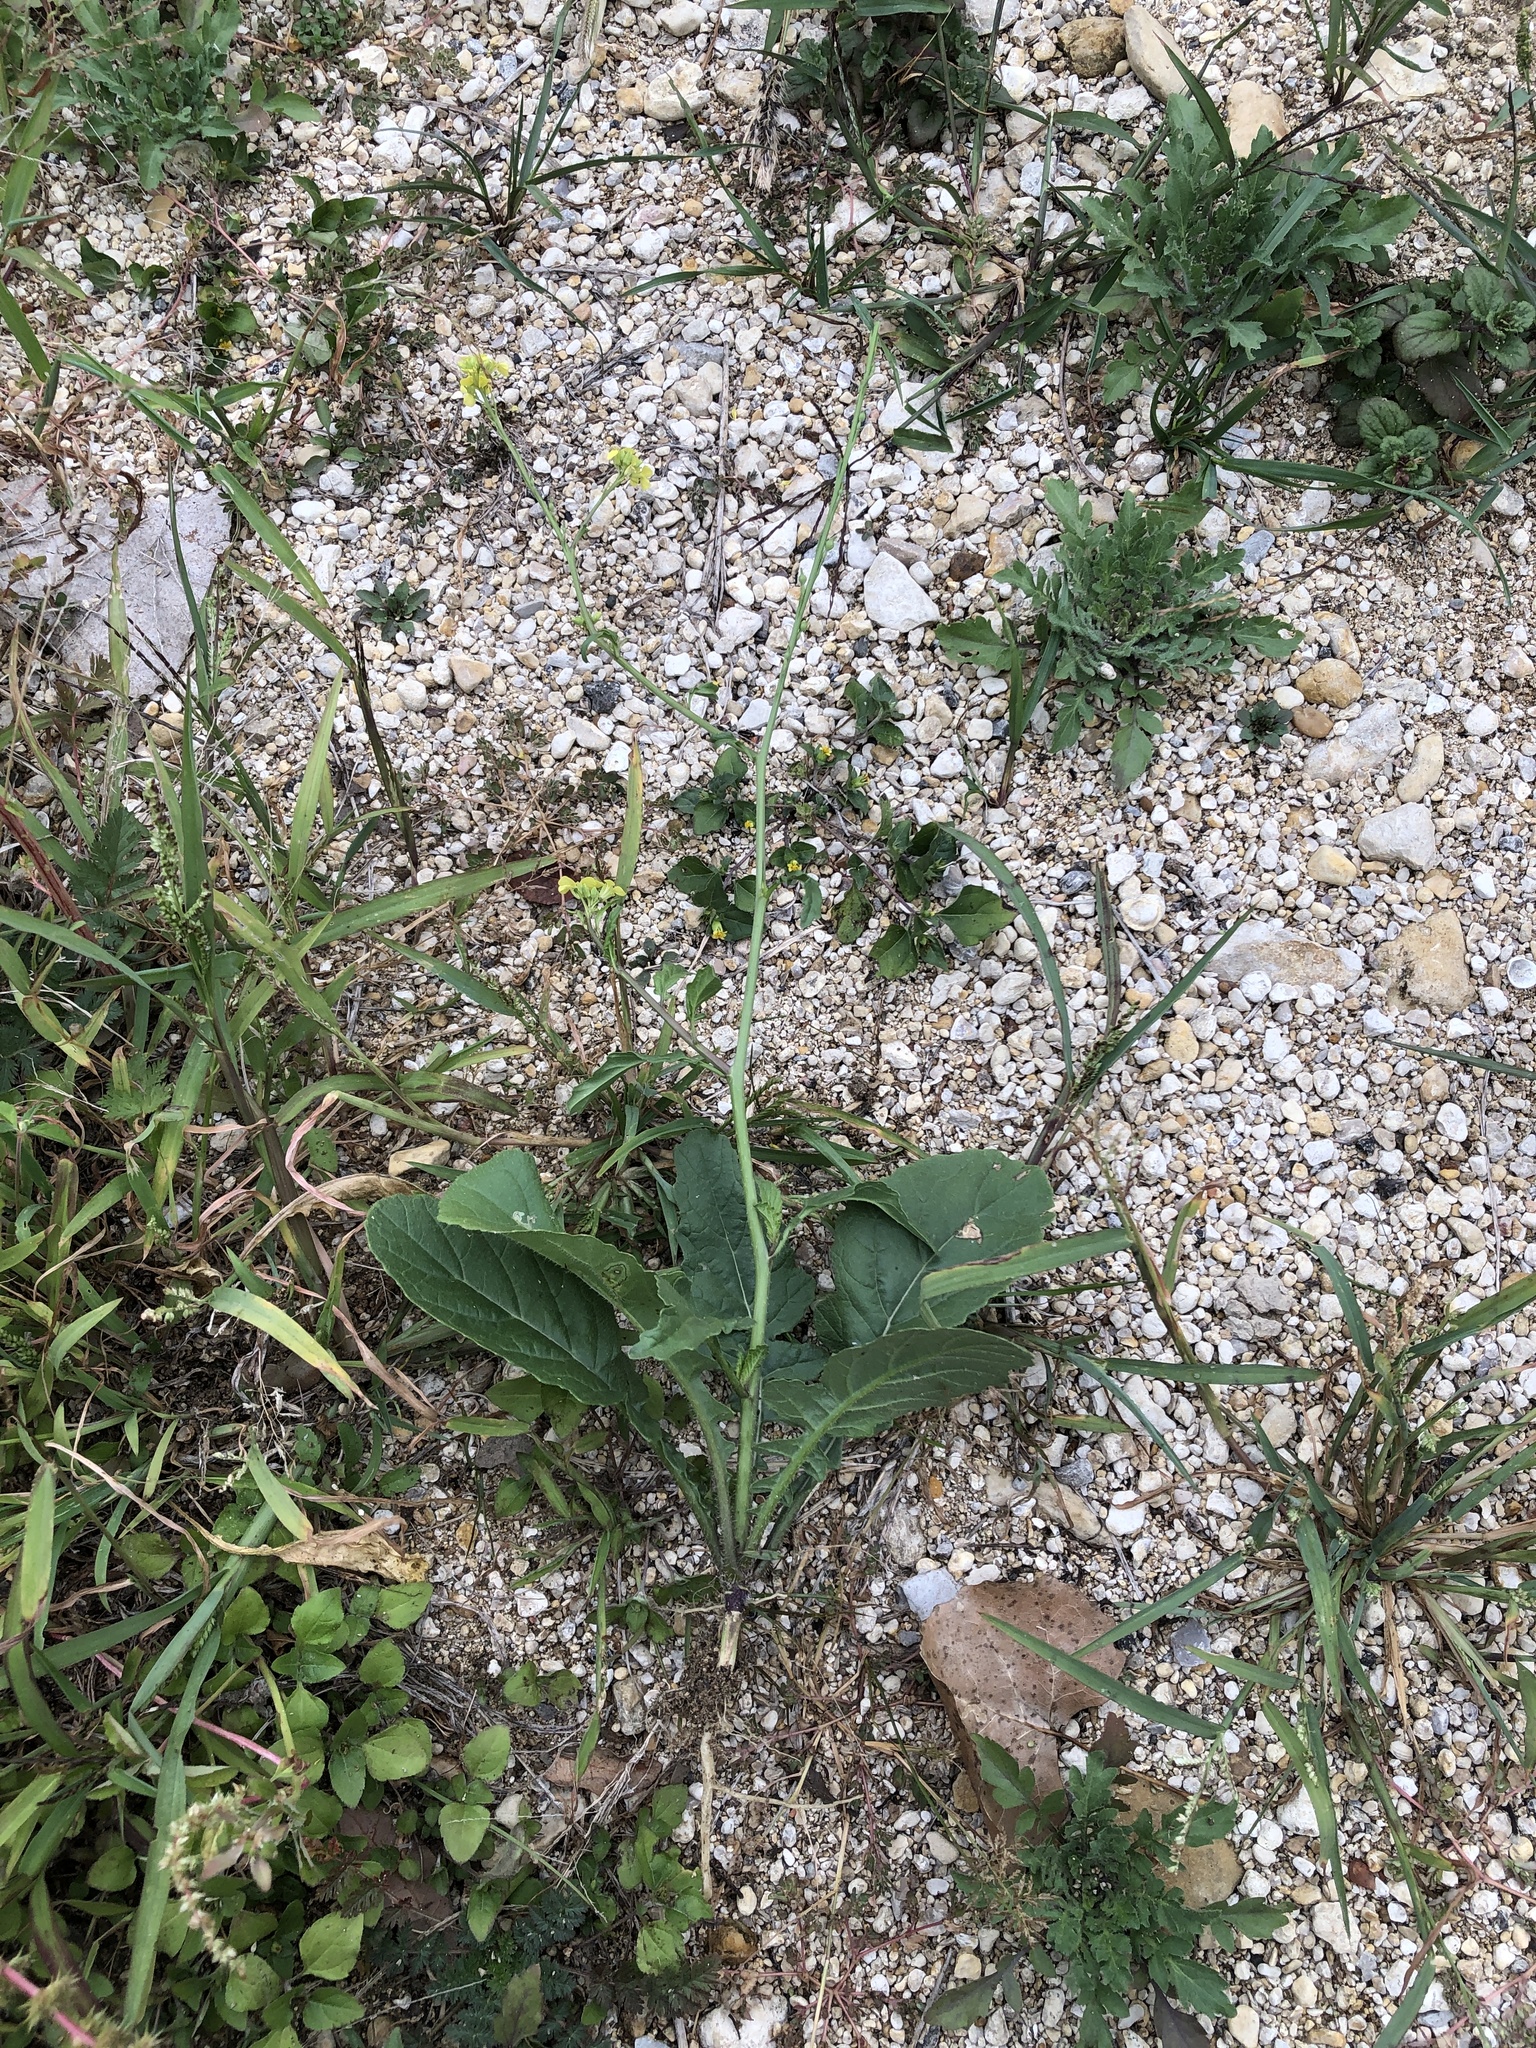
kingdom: Plantae
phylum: Tracheophyta
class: Magnoliopsida
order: Brassicales
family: Brassicaceae
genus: Rapistrum
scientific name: Rapistrum rugosum
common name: Annual bastardcabbage
